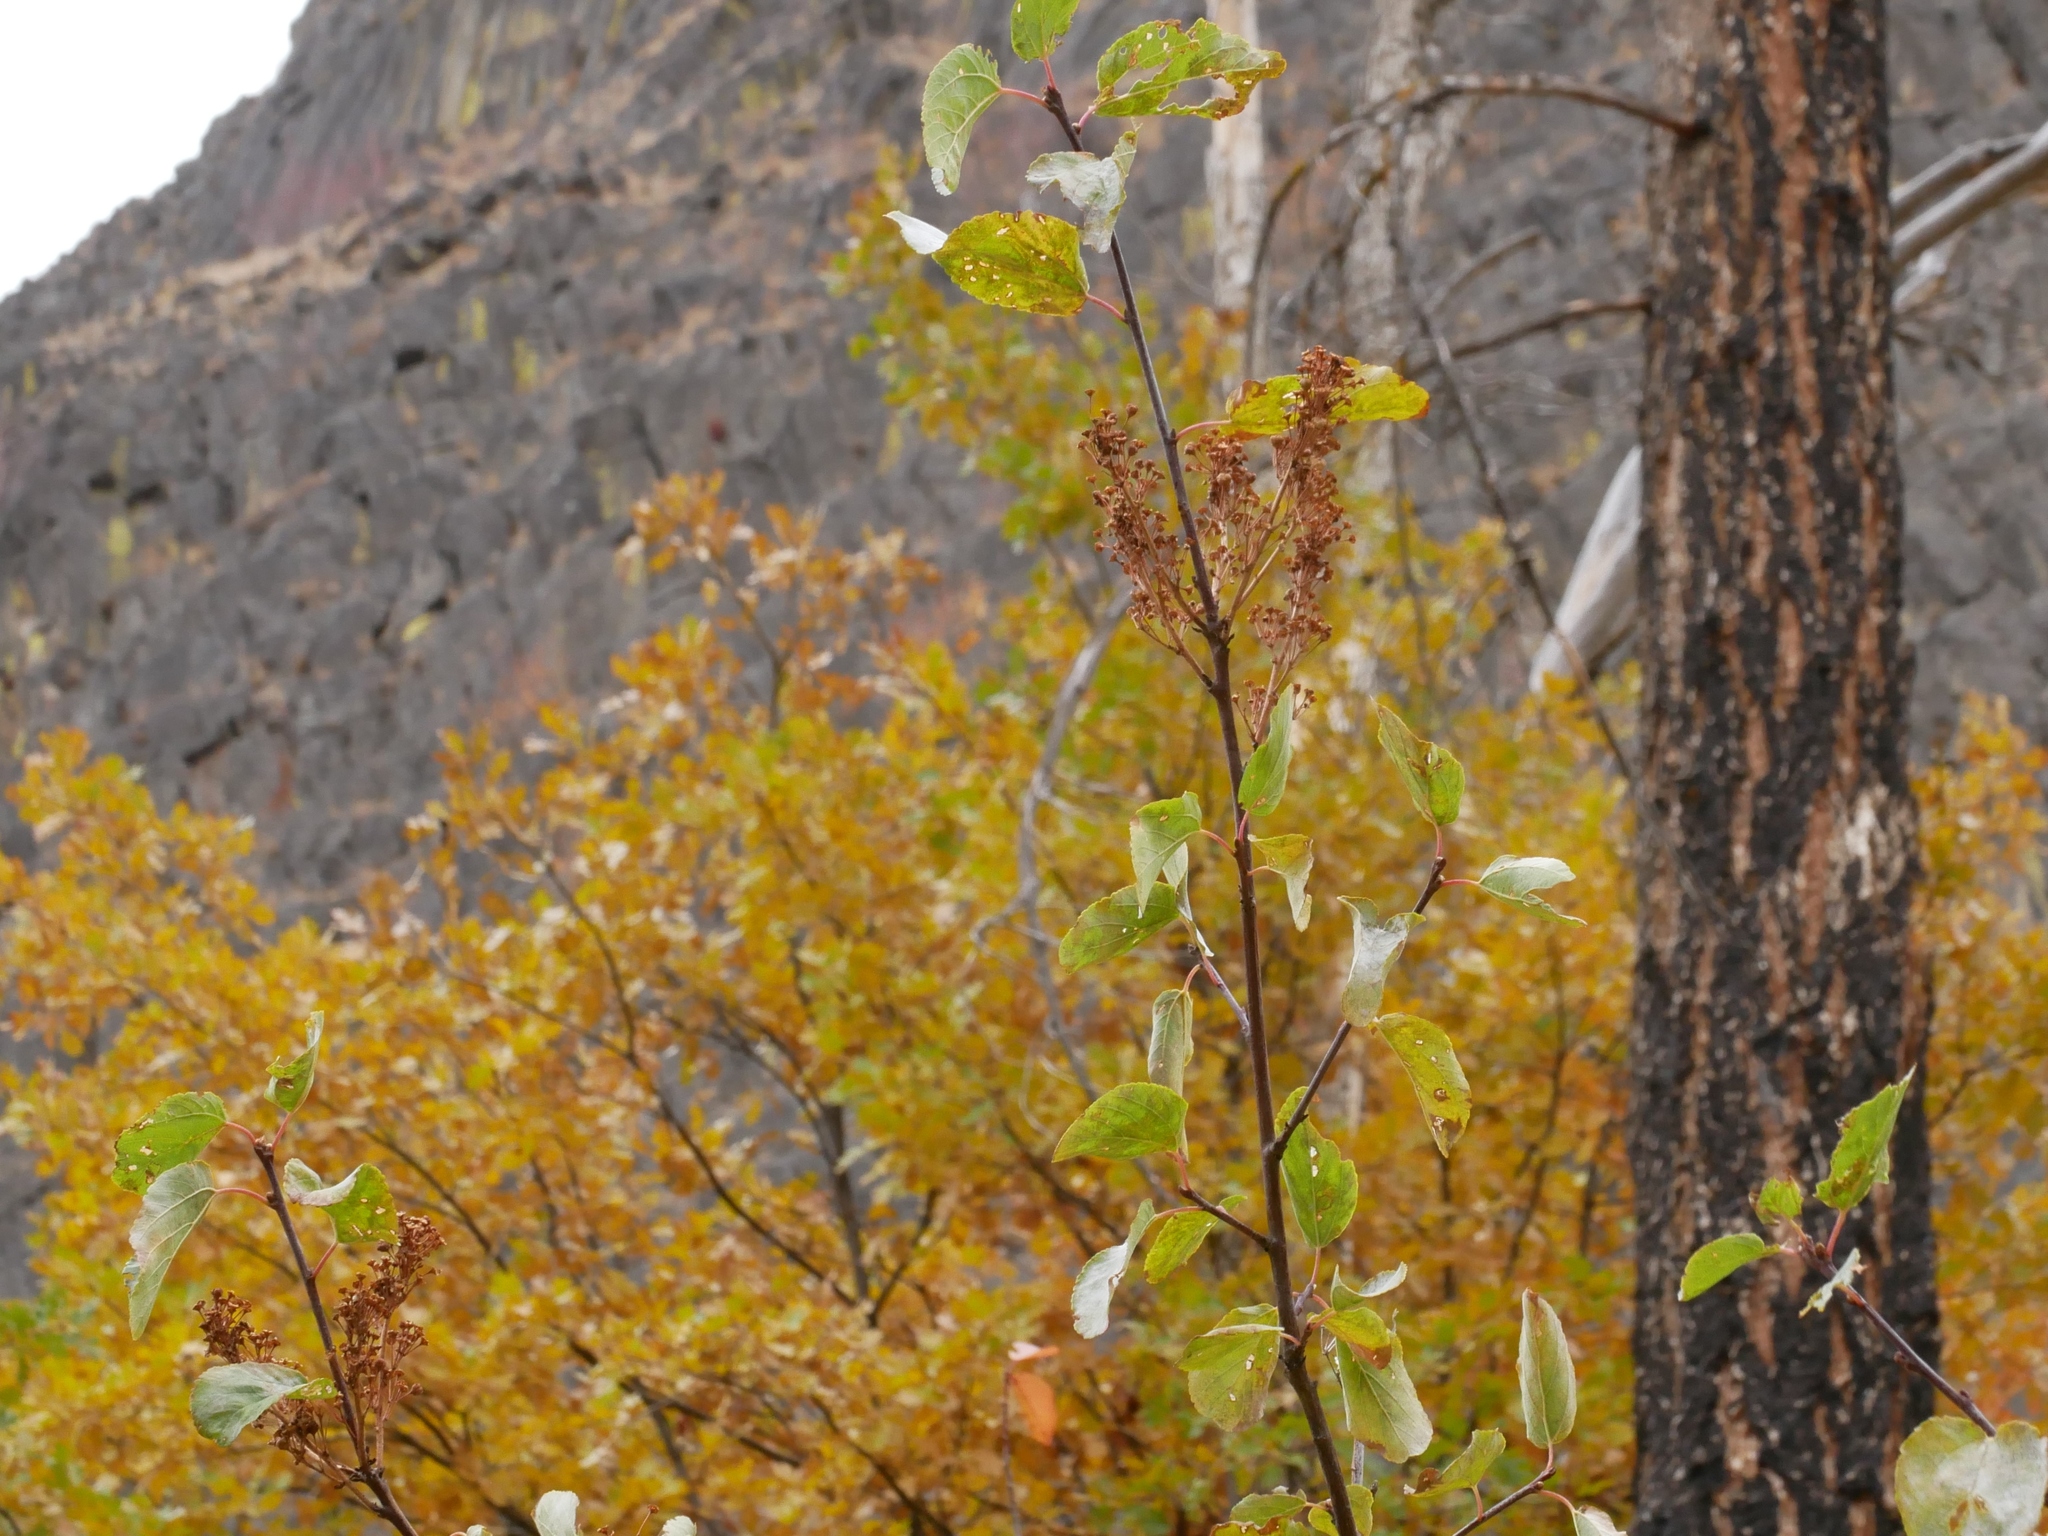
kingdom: Plantae
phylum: Tracheophyta
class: Magnoliopsida
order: Rosales
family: Rhamnaceae
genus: Ceanothus
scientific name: Ceanothus sanguineus
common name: Teatree
